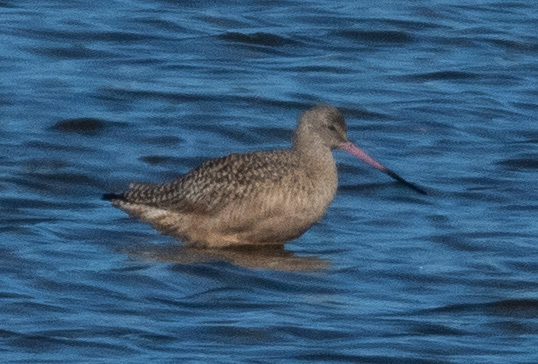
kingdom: Animalia
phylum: Chordata
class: Aves
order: Charadriiformes
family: Scolopacidae
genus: Limosa
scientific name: Limosa fedoa
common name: Marbled godwit
